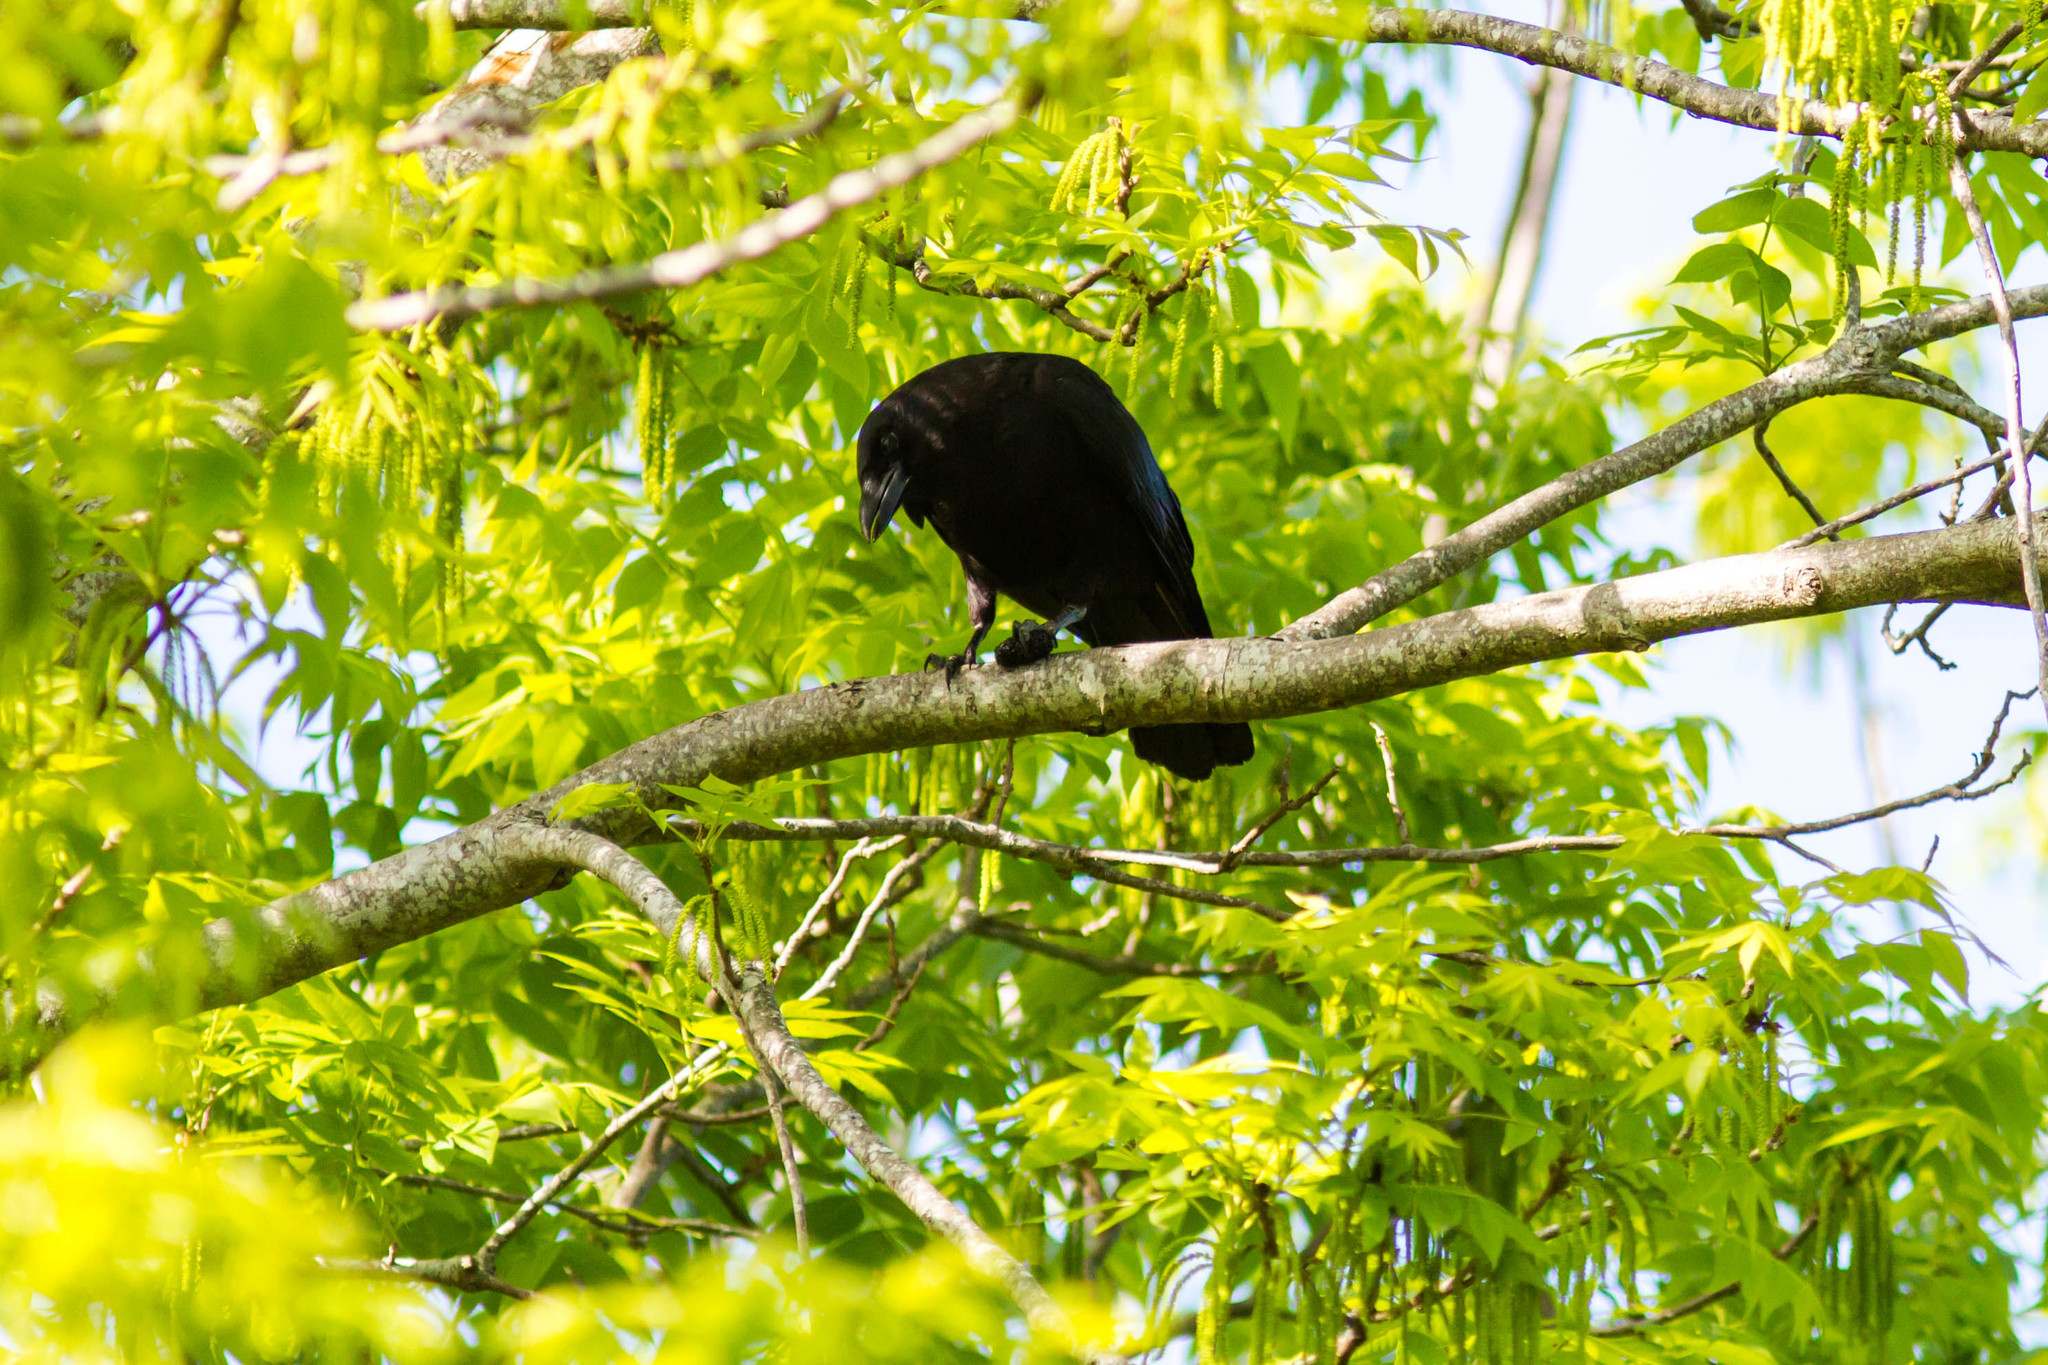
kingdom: Animalia
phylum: Chordata
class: Aves
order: Passeriformes
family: Corvidae
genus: Corvus
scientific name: Corvus brachyrhynchos
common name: American crow
